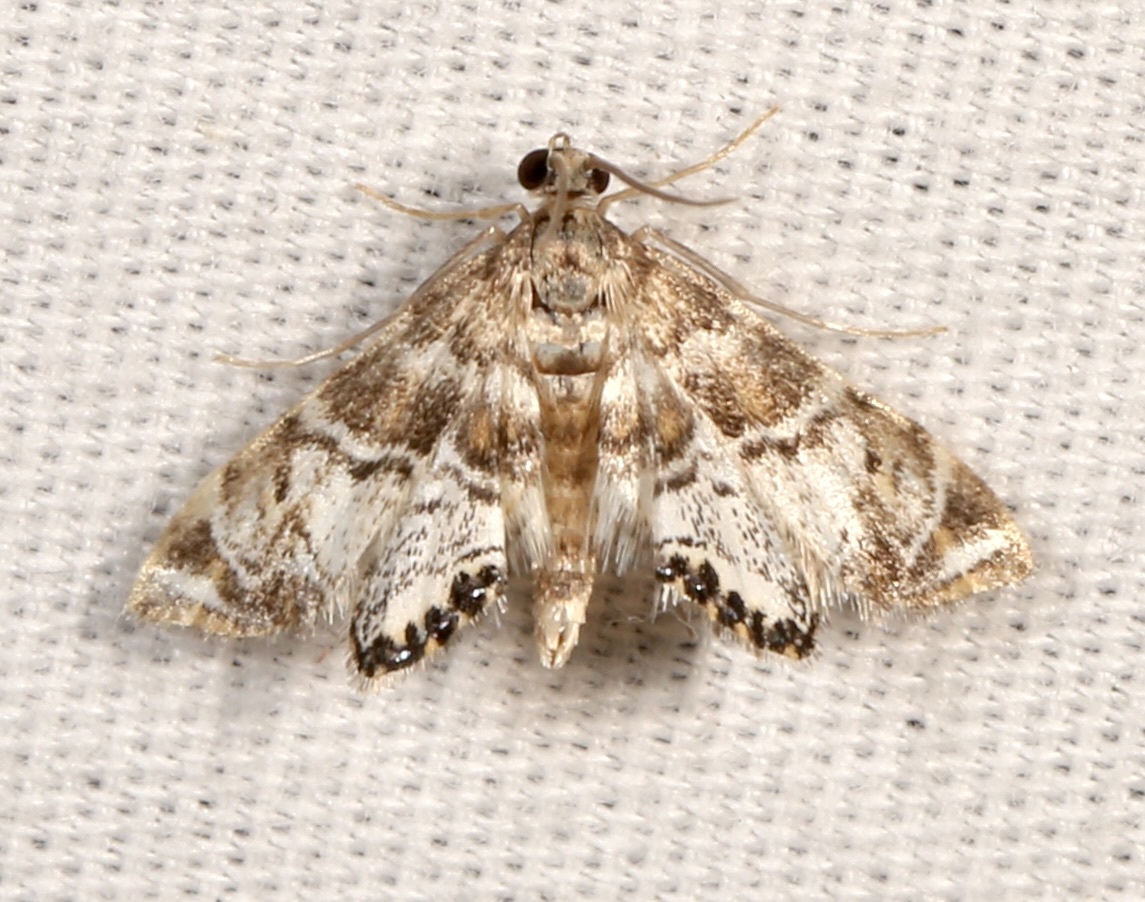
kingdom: Animalia
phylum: Arthropoda
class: Insecta
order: Lepidoptera
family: Crambidae
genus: Petrophila
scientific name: Petrophila confusalis
